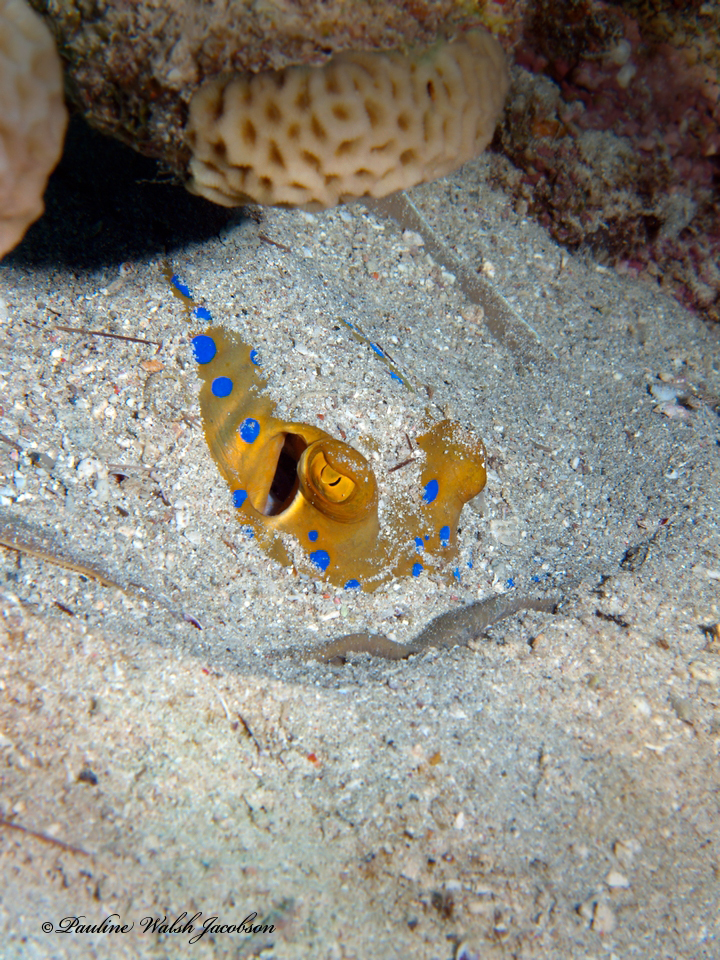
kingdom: Animalia
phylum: Chordata
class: Elasmobranchii
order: Myliobatiformes
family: Dasyatidae
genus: Taeniura
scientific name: Taeniura lymma
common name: Bluespotted ribbontail ray
